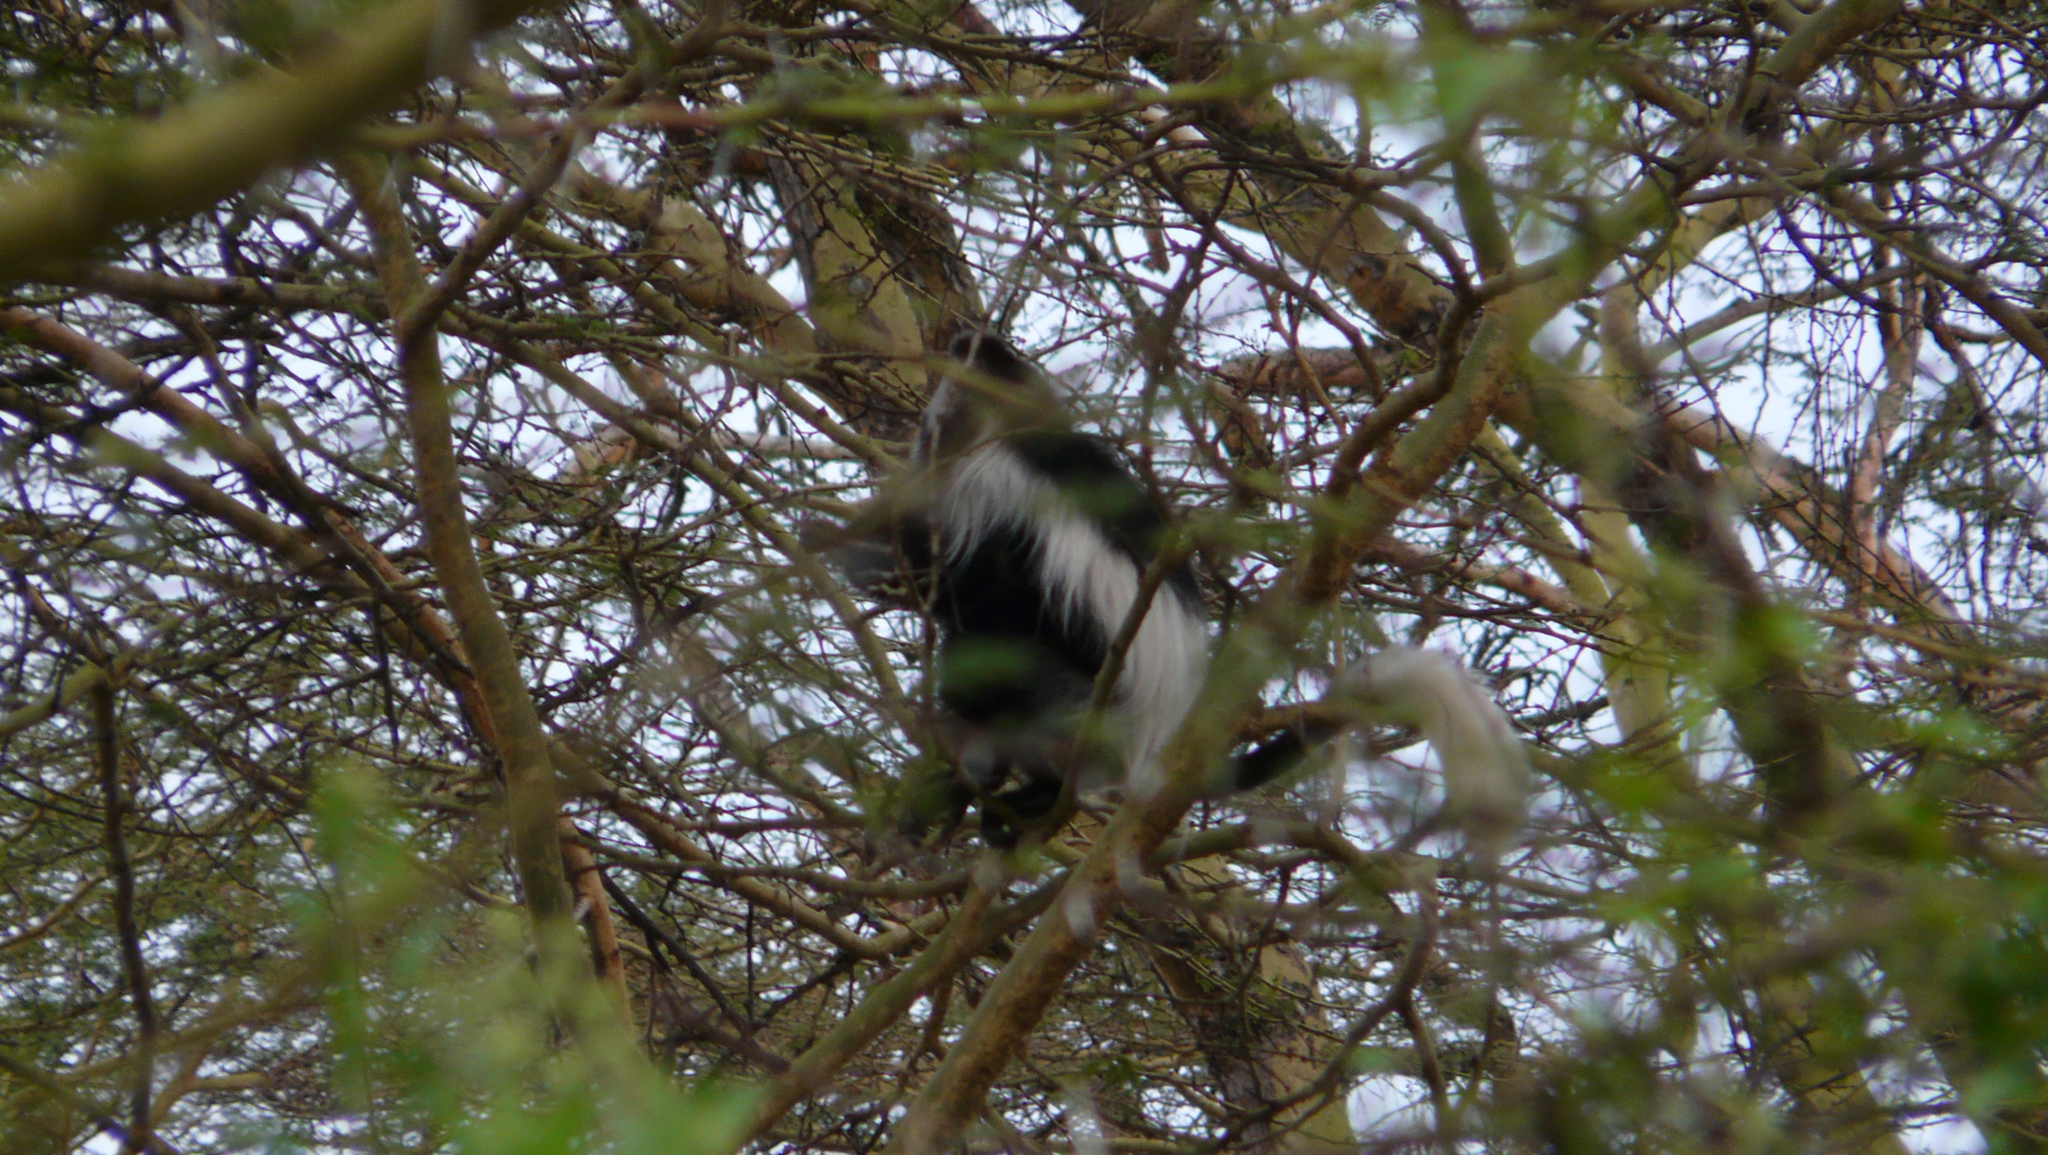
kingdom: Animalia
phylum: Chordata
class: Mammalia
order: Primates
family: Cercopithecidae
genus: Colobus
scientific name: Colobus guereza
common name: Mantled guereza
